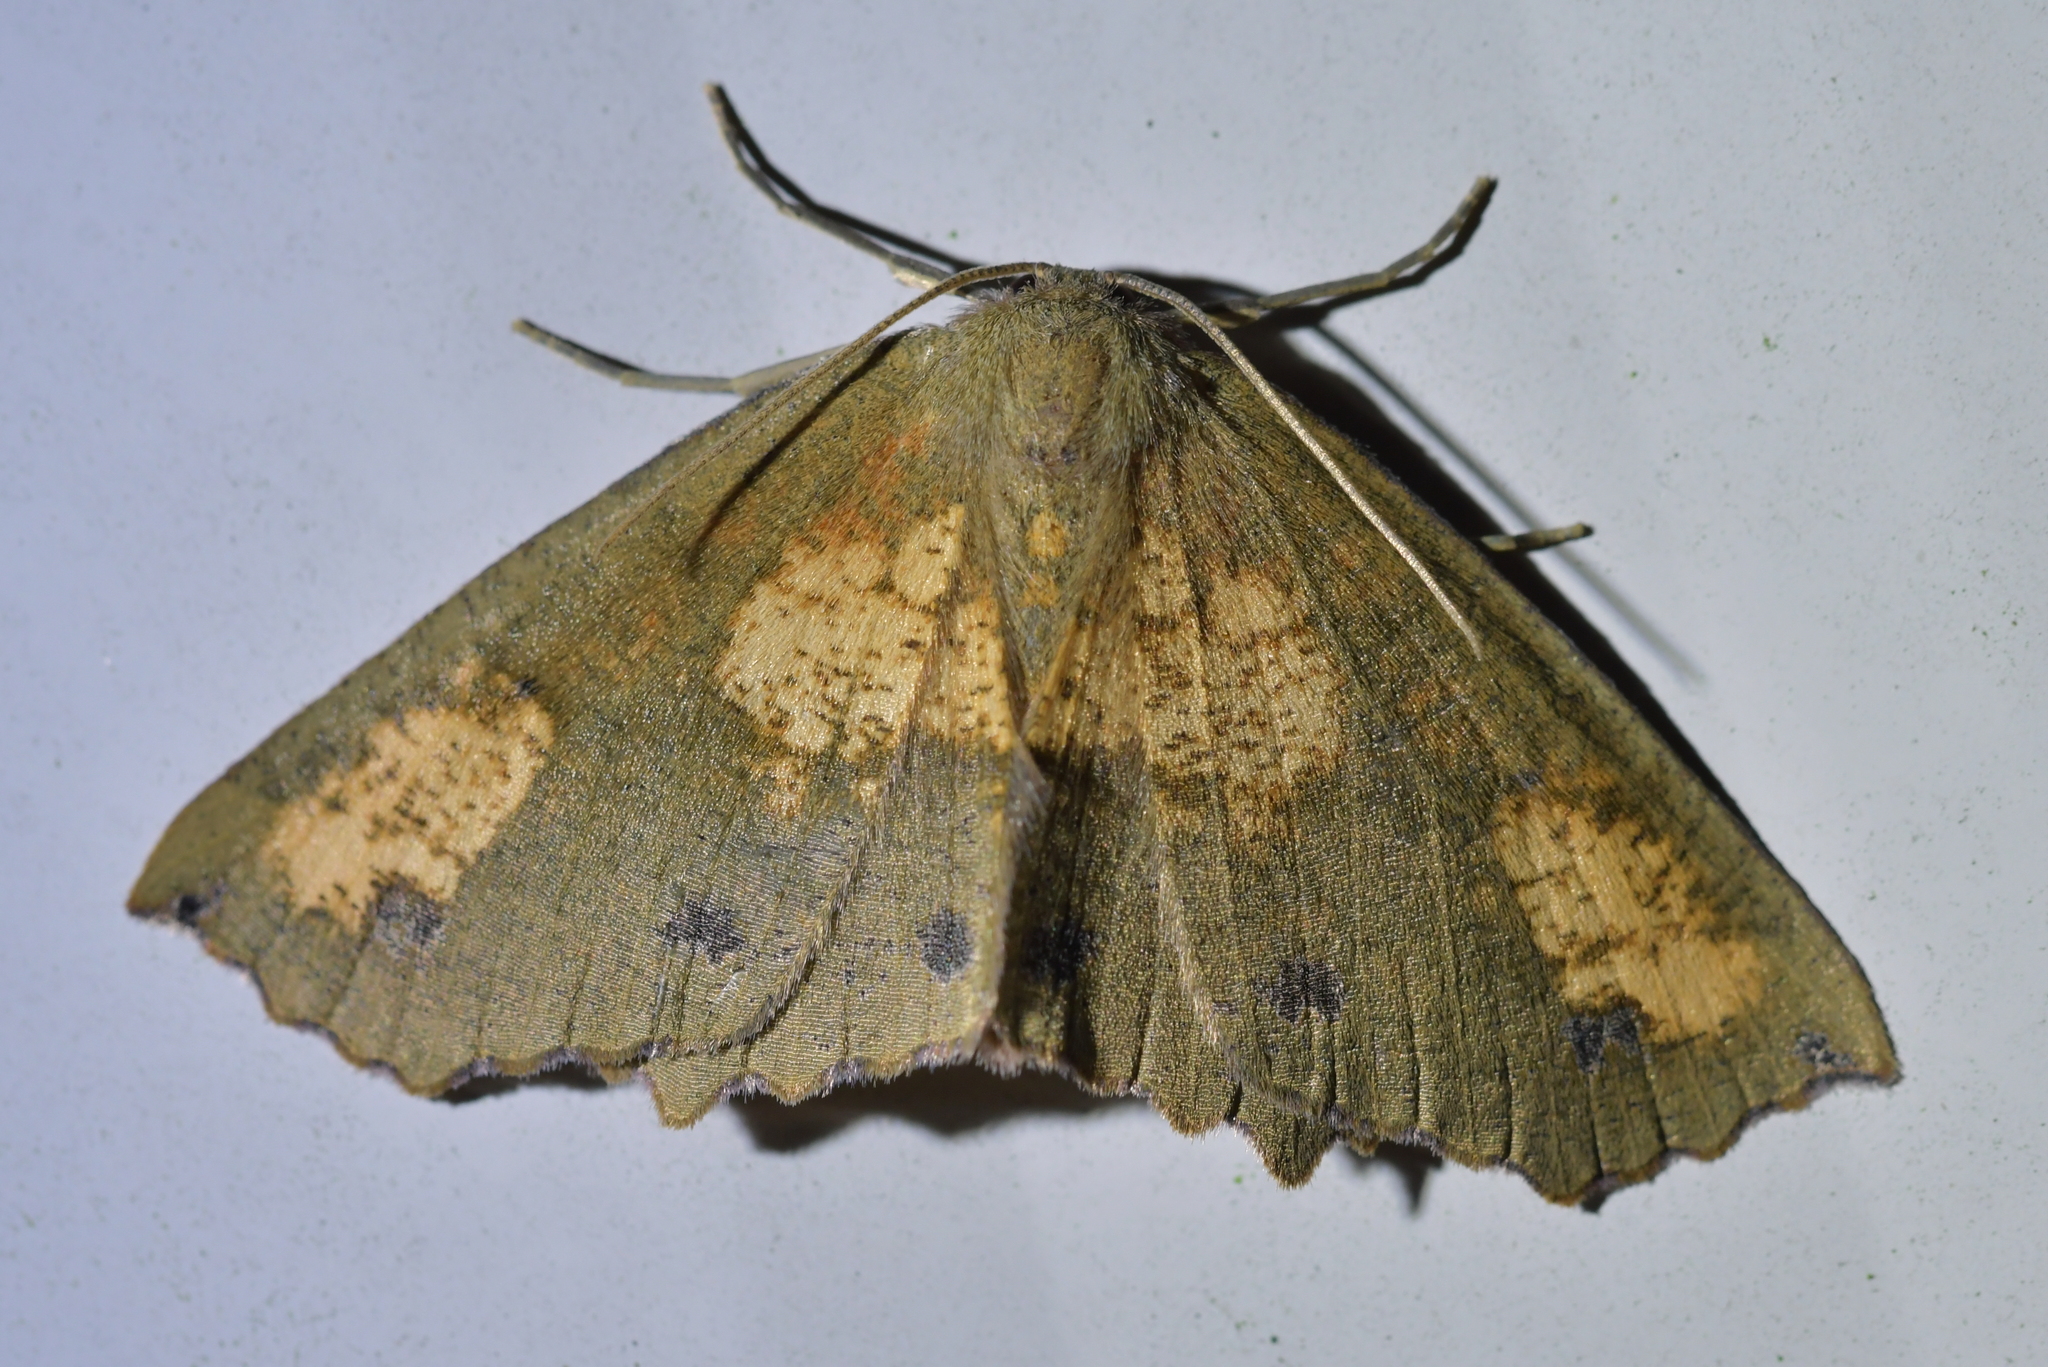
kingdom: Animalia
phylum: Arthropoda
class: Insecta
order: Lepidoptera
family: Geometridae
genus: Xyridacma
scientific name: Xyridacma ustaria
